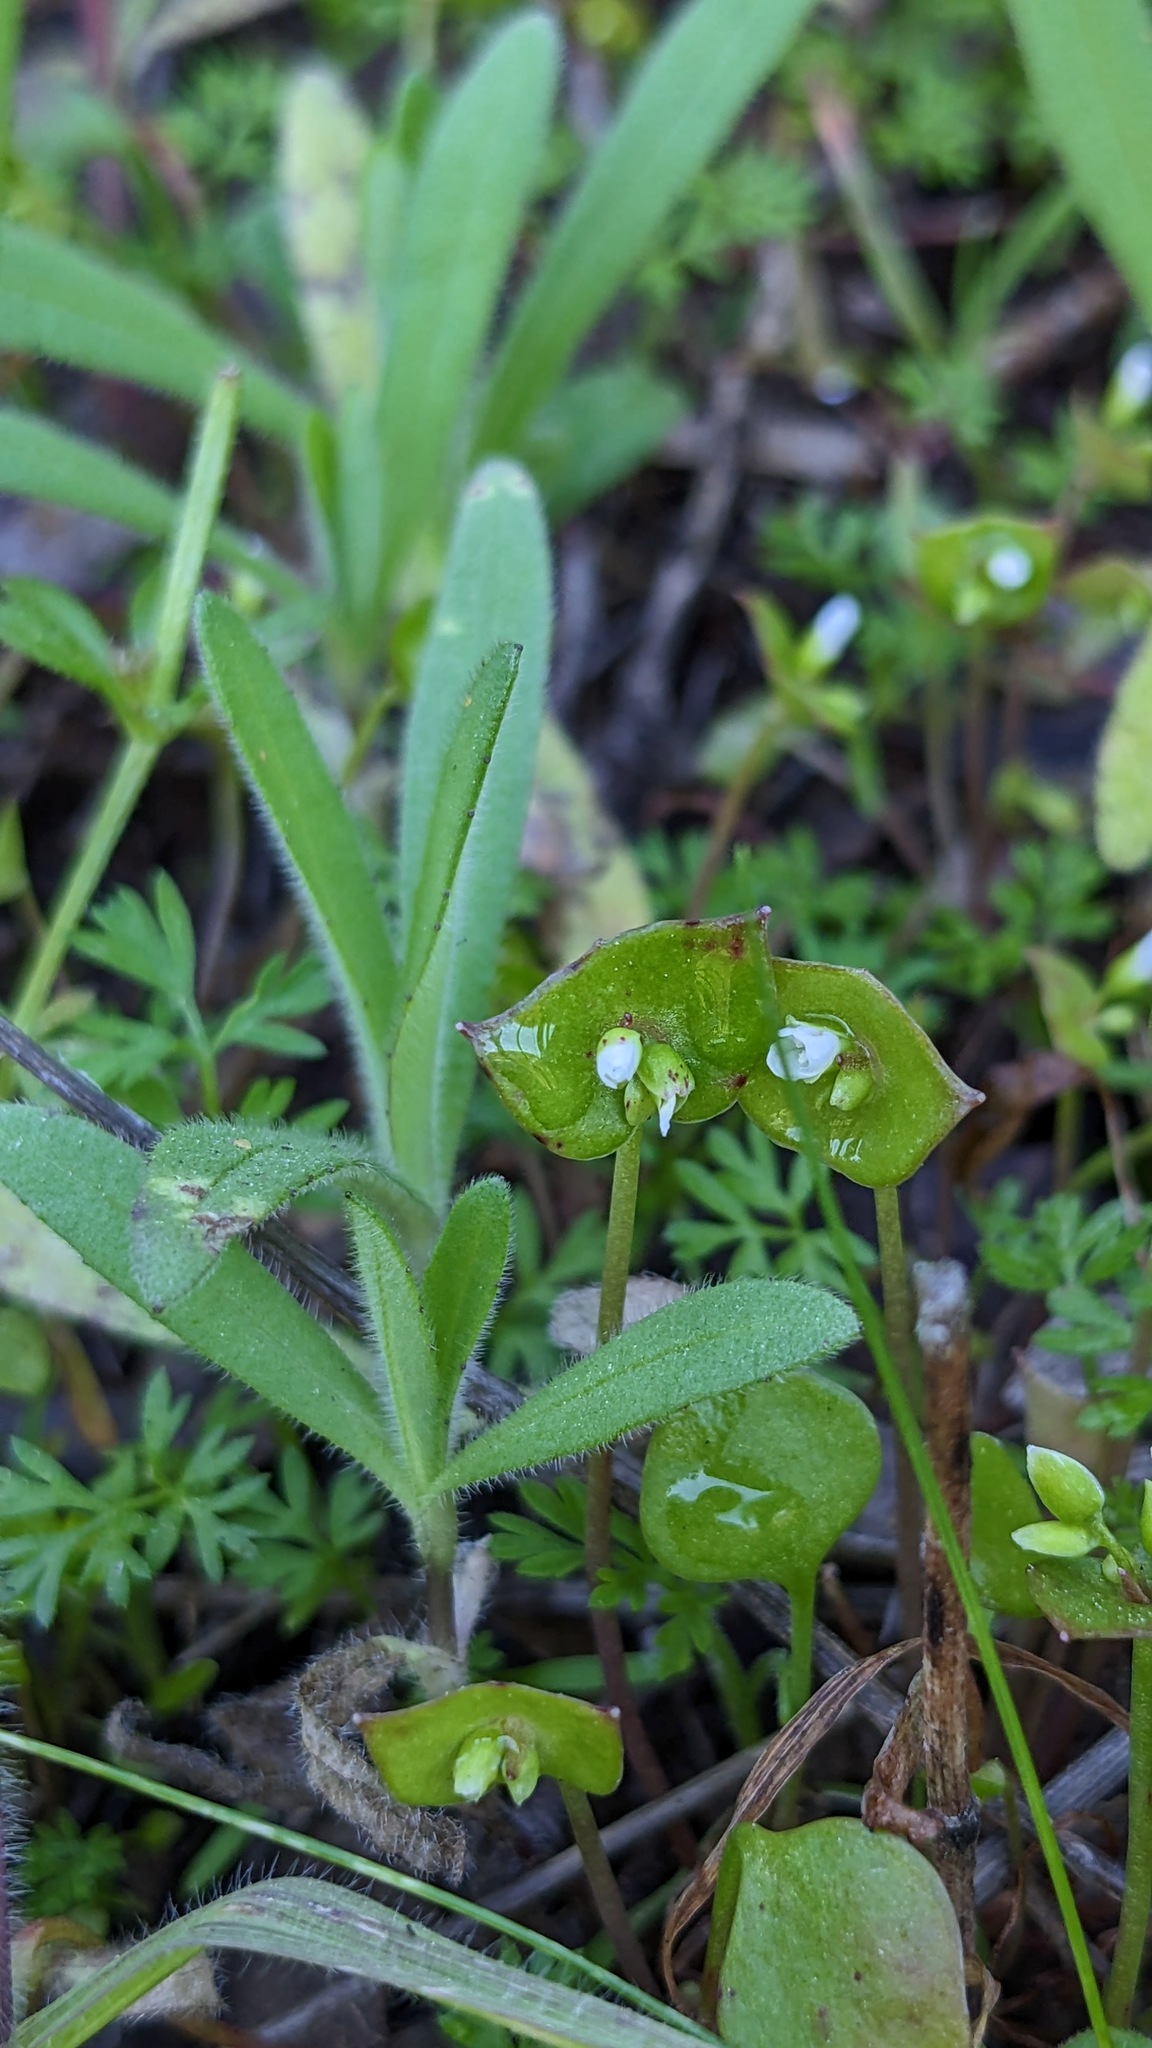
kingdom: Plantae
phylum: Tracheophyta
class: Magnoliopsida
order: Caryophyllales
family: Montiaceae
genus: Claytonia
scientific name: Claytonia perfoliata
